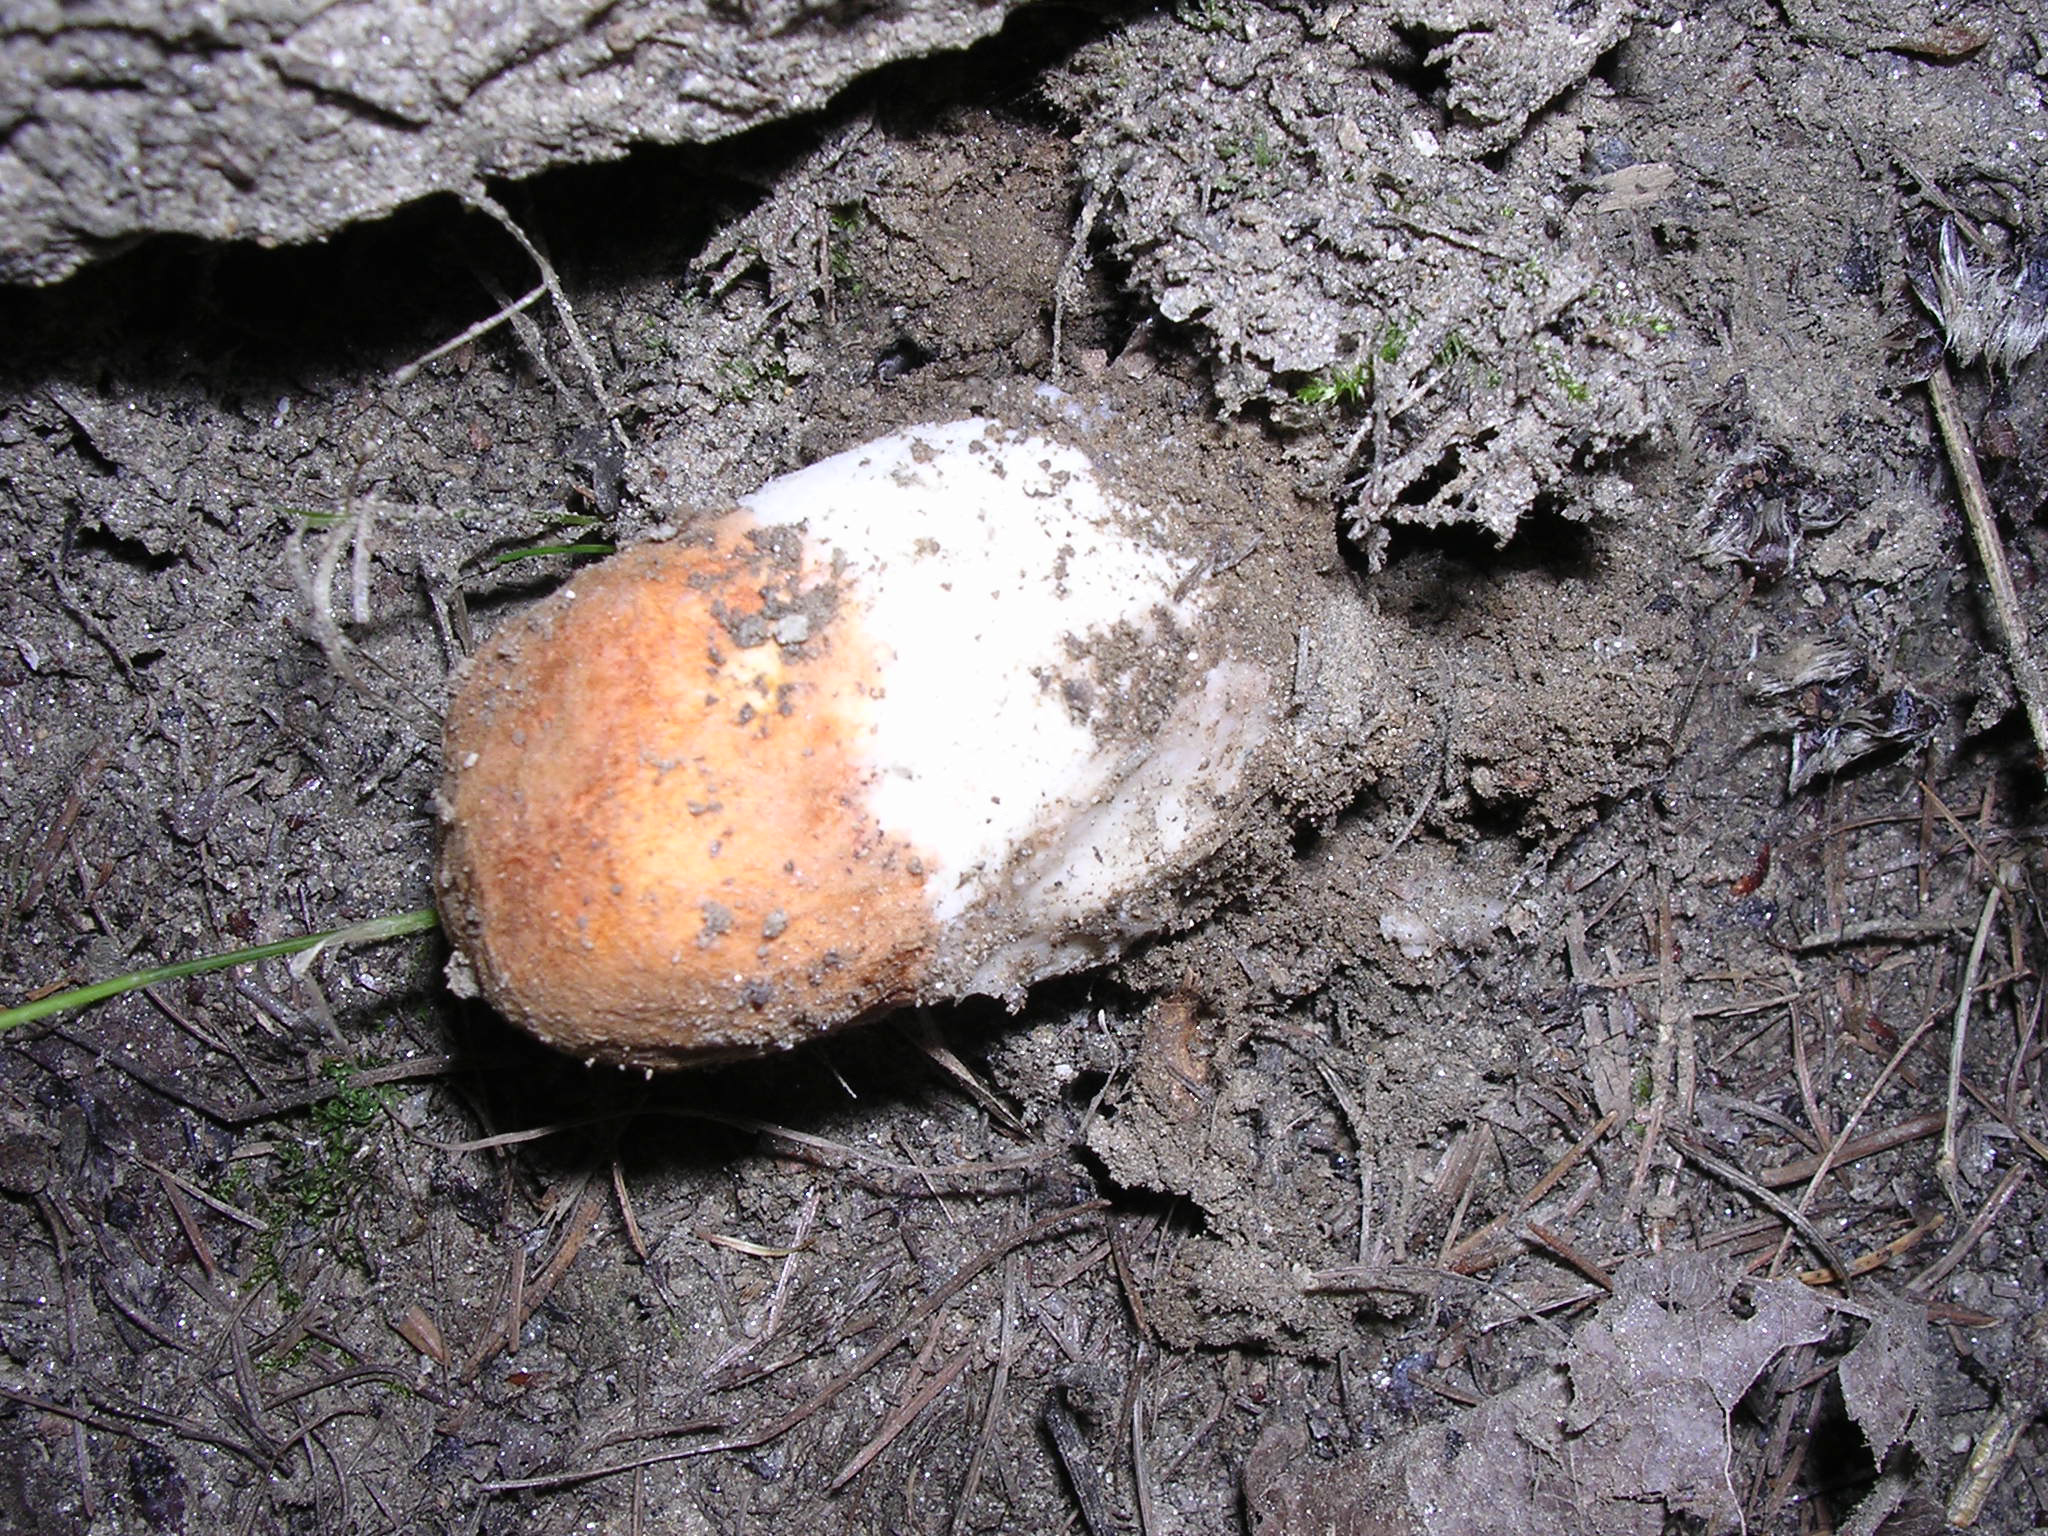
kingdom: Fungi
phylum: Basidiomycota
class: Agaricomycetes
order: Boletales
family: Boletaceae
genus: Leccinum
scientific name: Leccinum albostipitatum
